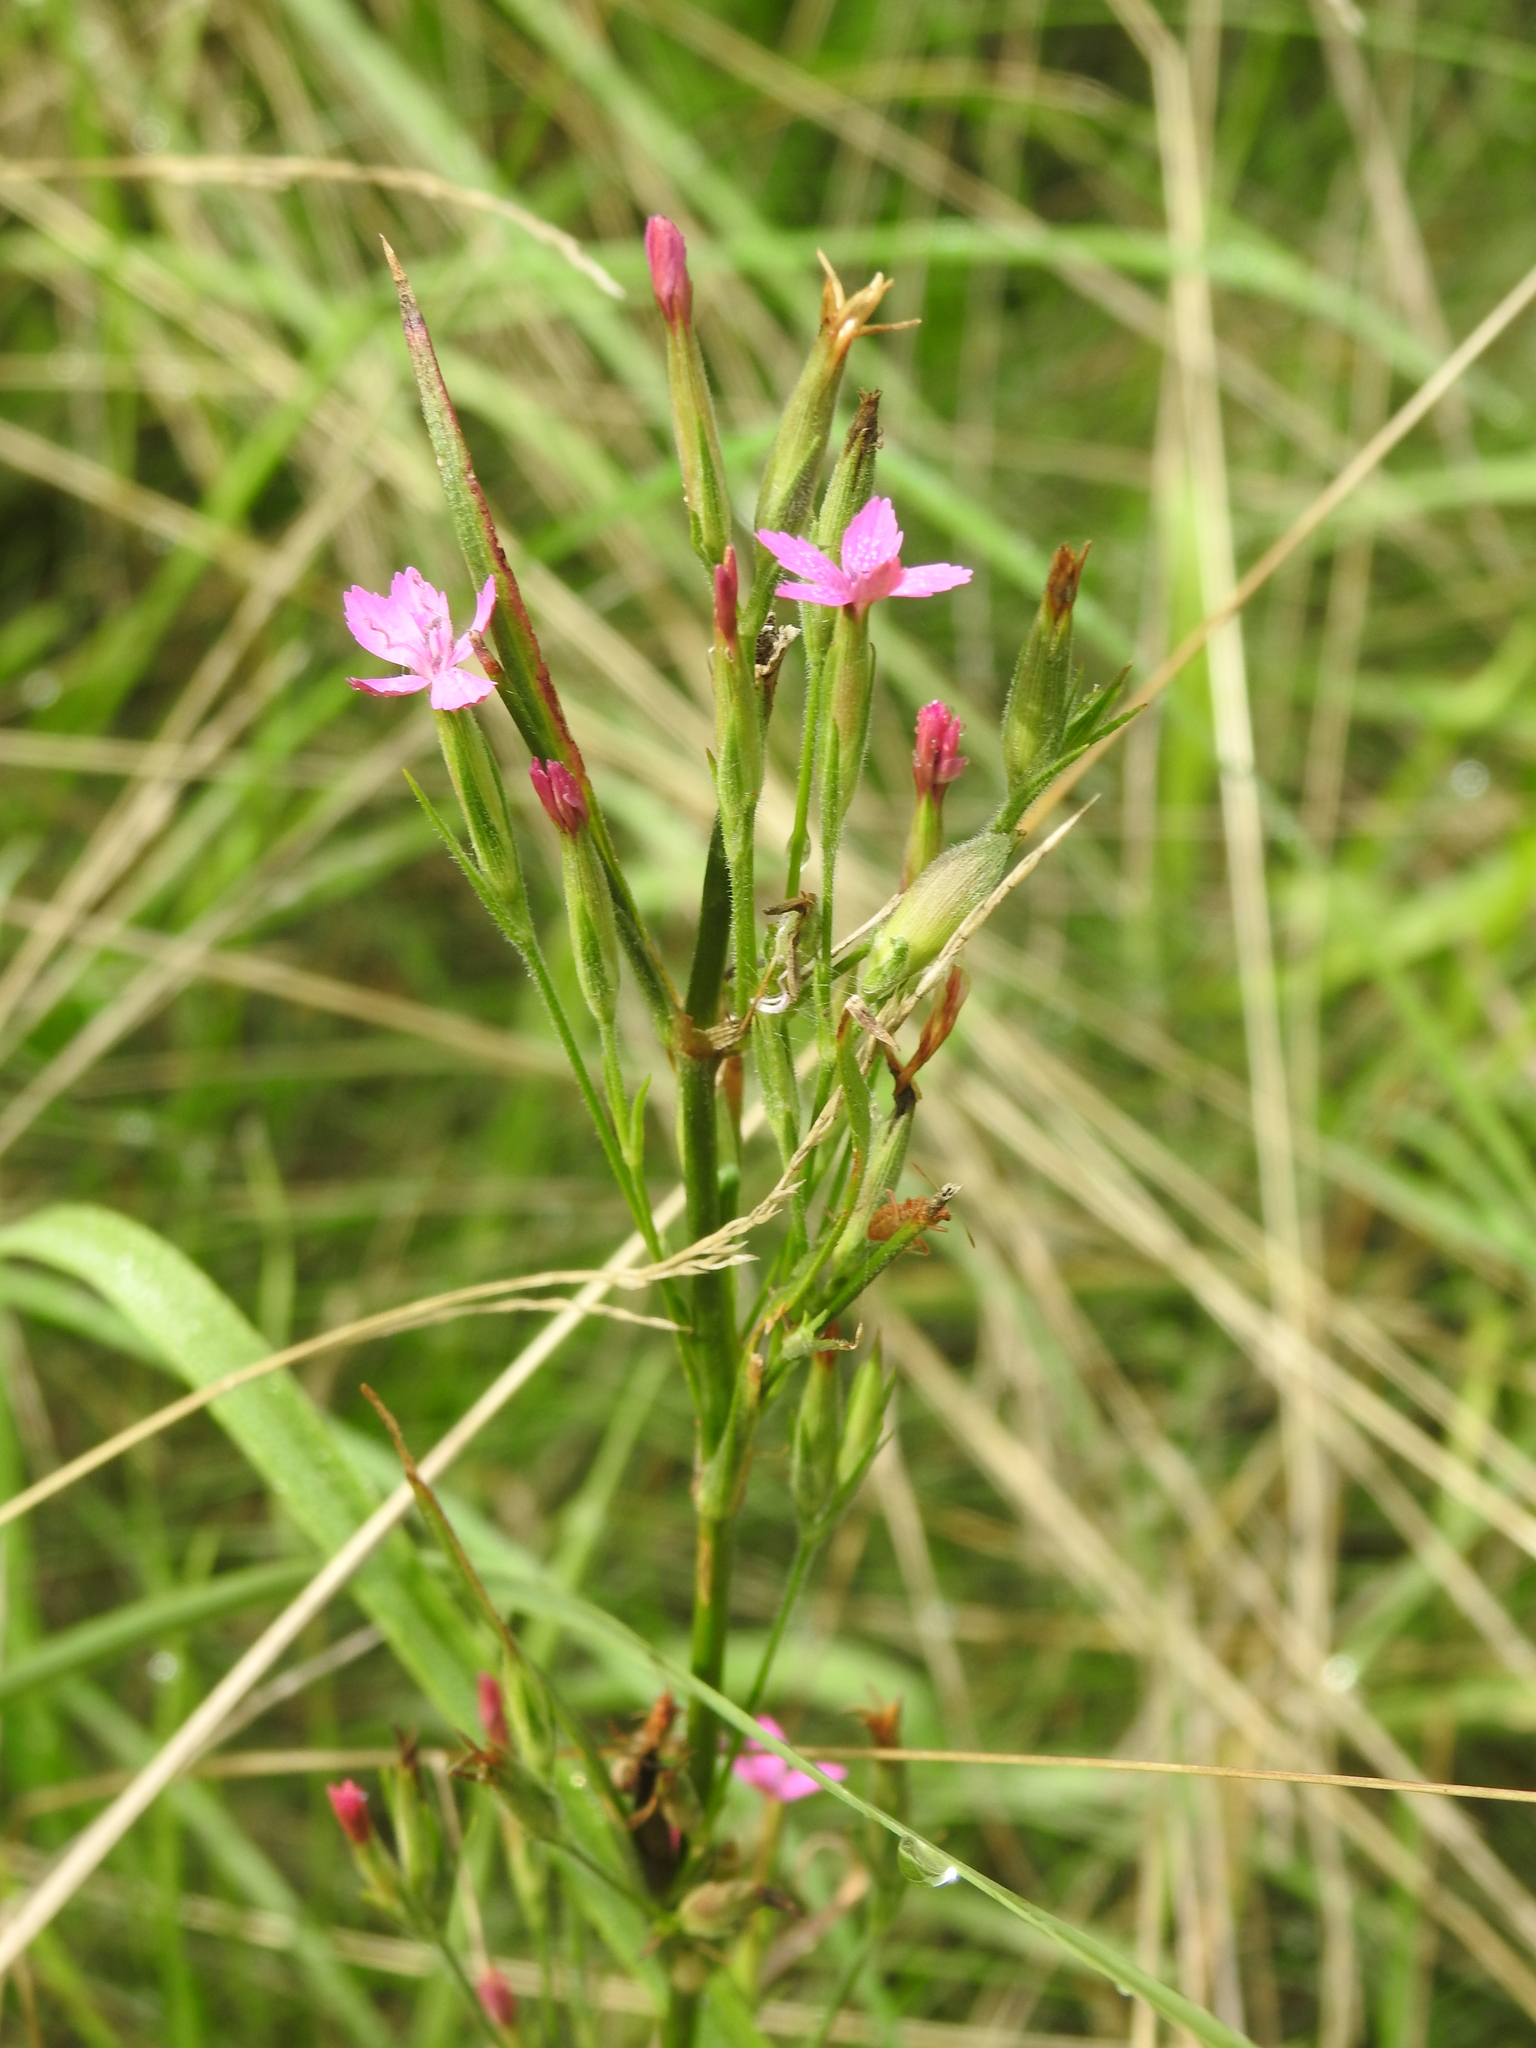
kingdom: Plantae
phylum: Tracheophyta
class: Magnoliopsida
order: Caryophyllales
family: Caryophyllaceae
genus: Dianthus
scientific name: Dianthus armeria
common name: Deptford pink
